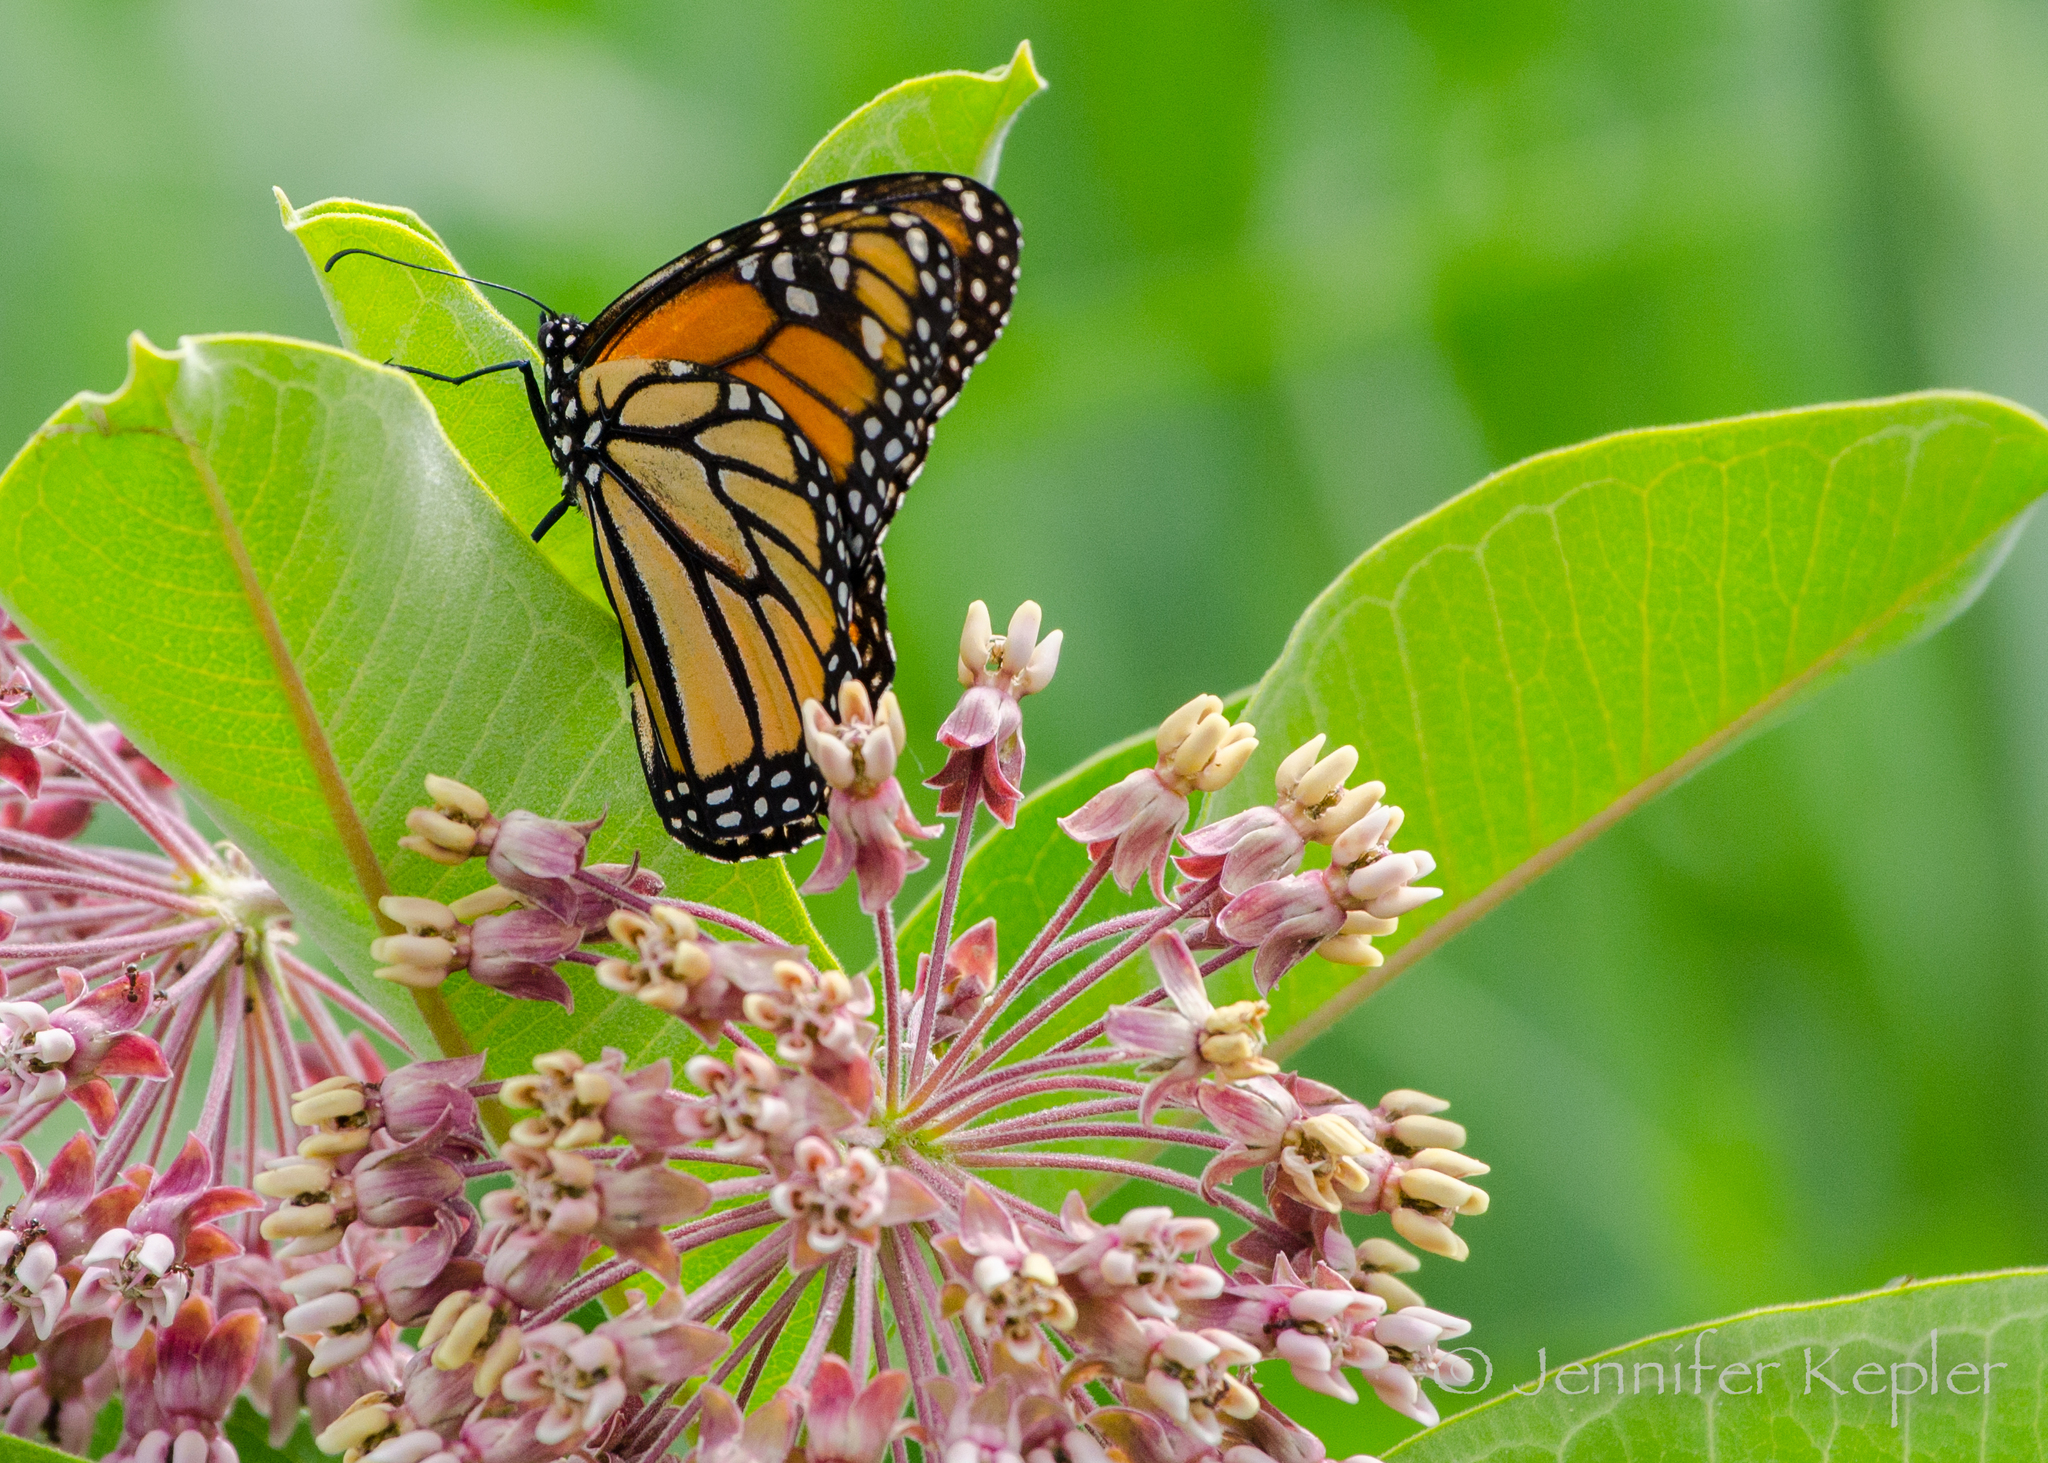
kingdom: Animalia
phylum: Arthropoda
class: Insecta
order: Lepidoptera
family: Nymphalidae
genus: Danaus
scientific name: Danaus plexippus
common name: Monarch
